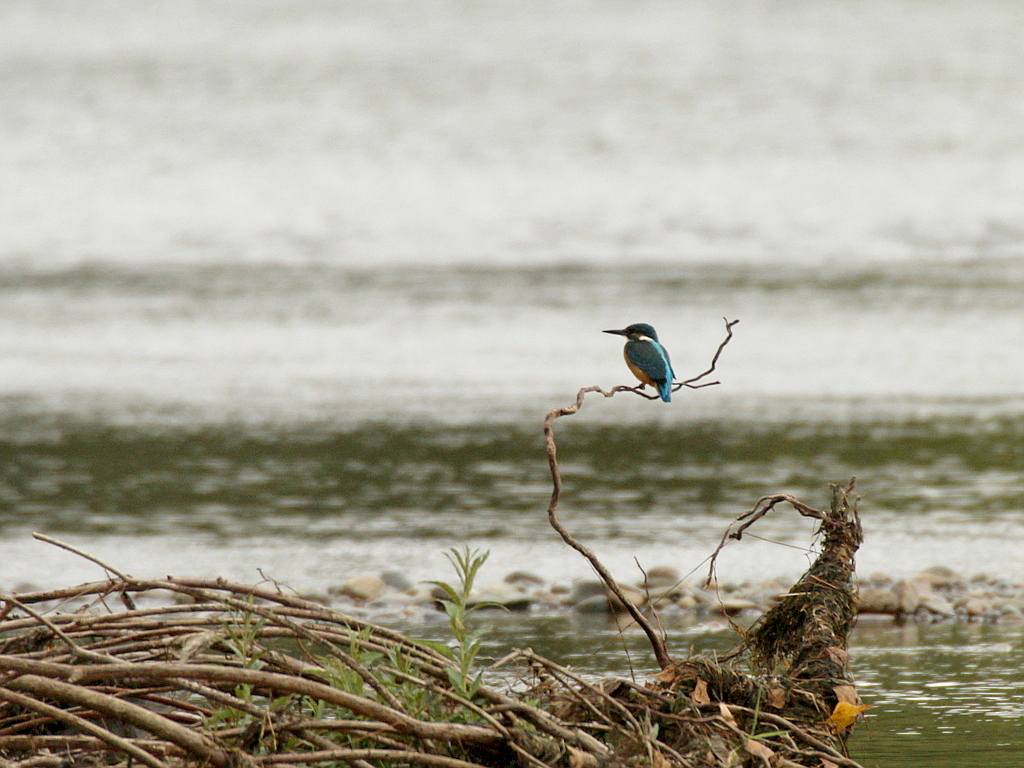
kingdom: Animalia
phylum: Chordata
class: Aves
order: Coraciiformes
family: Alcedinidae
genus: Alcedo
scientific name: Alcedo atthis
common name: Common kingfisher
